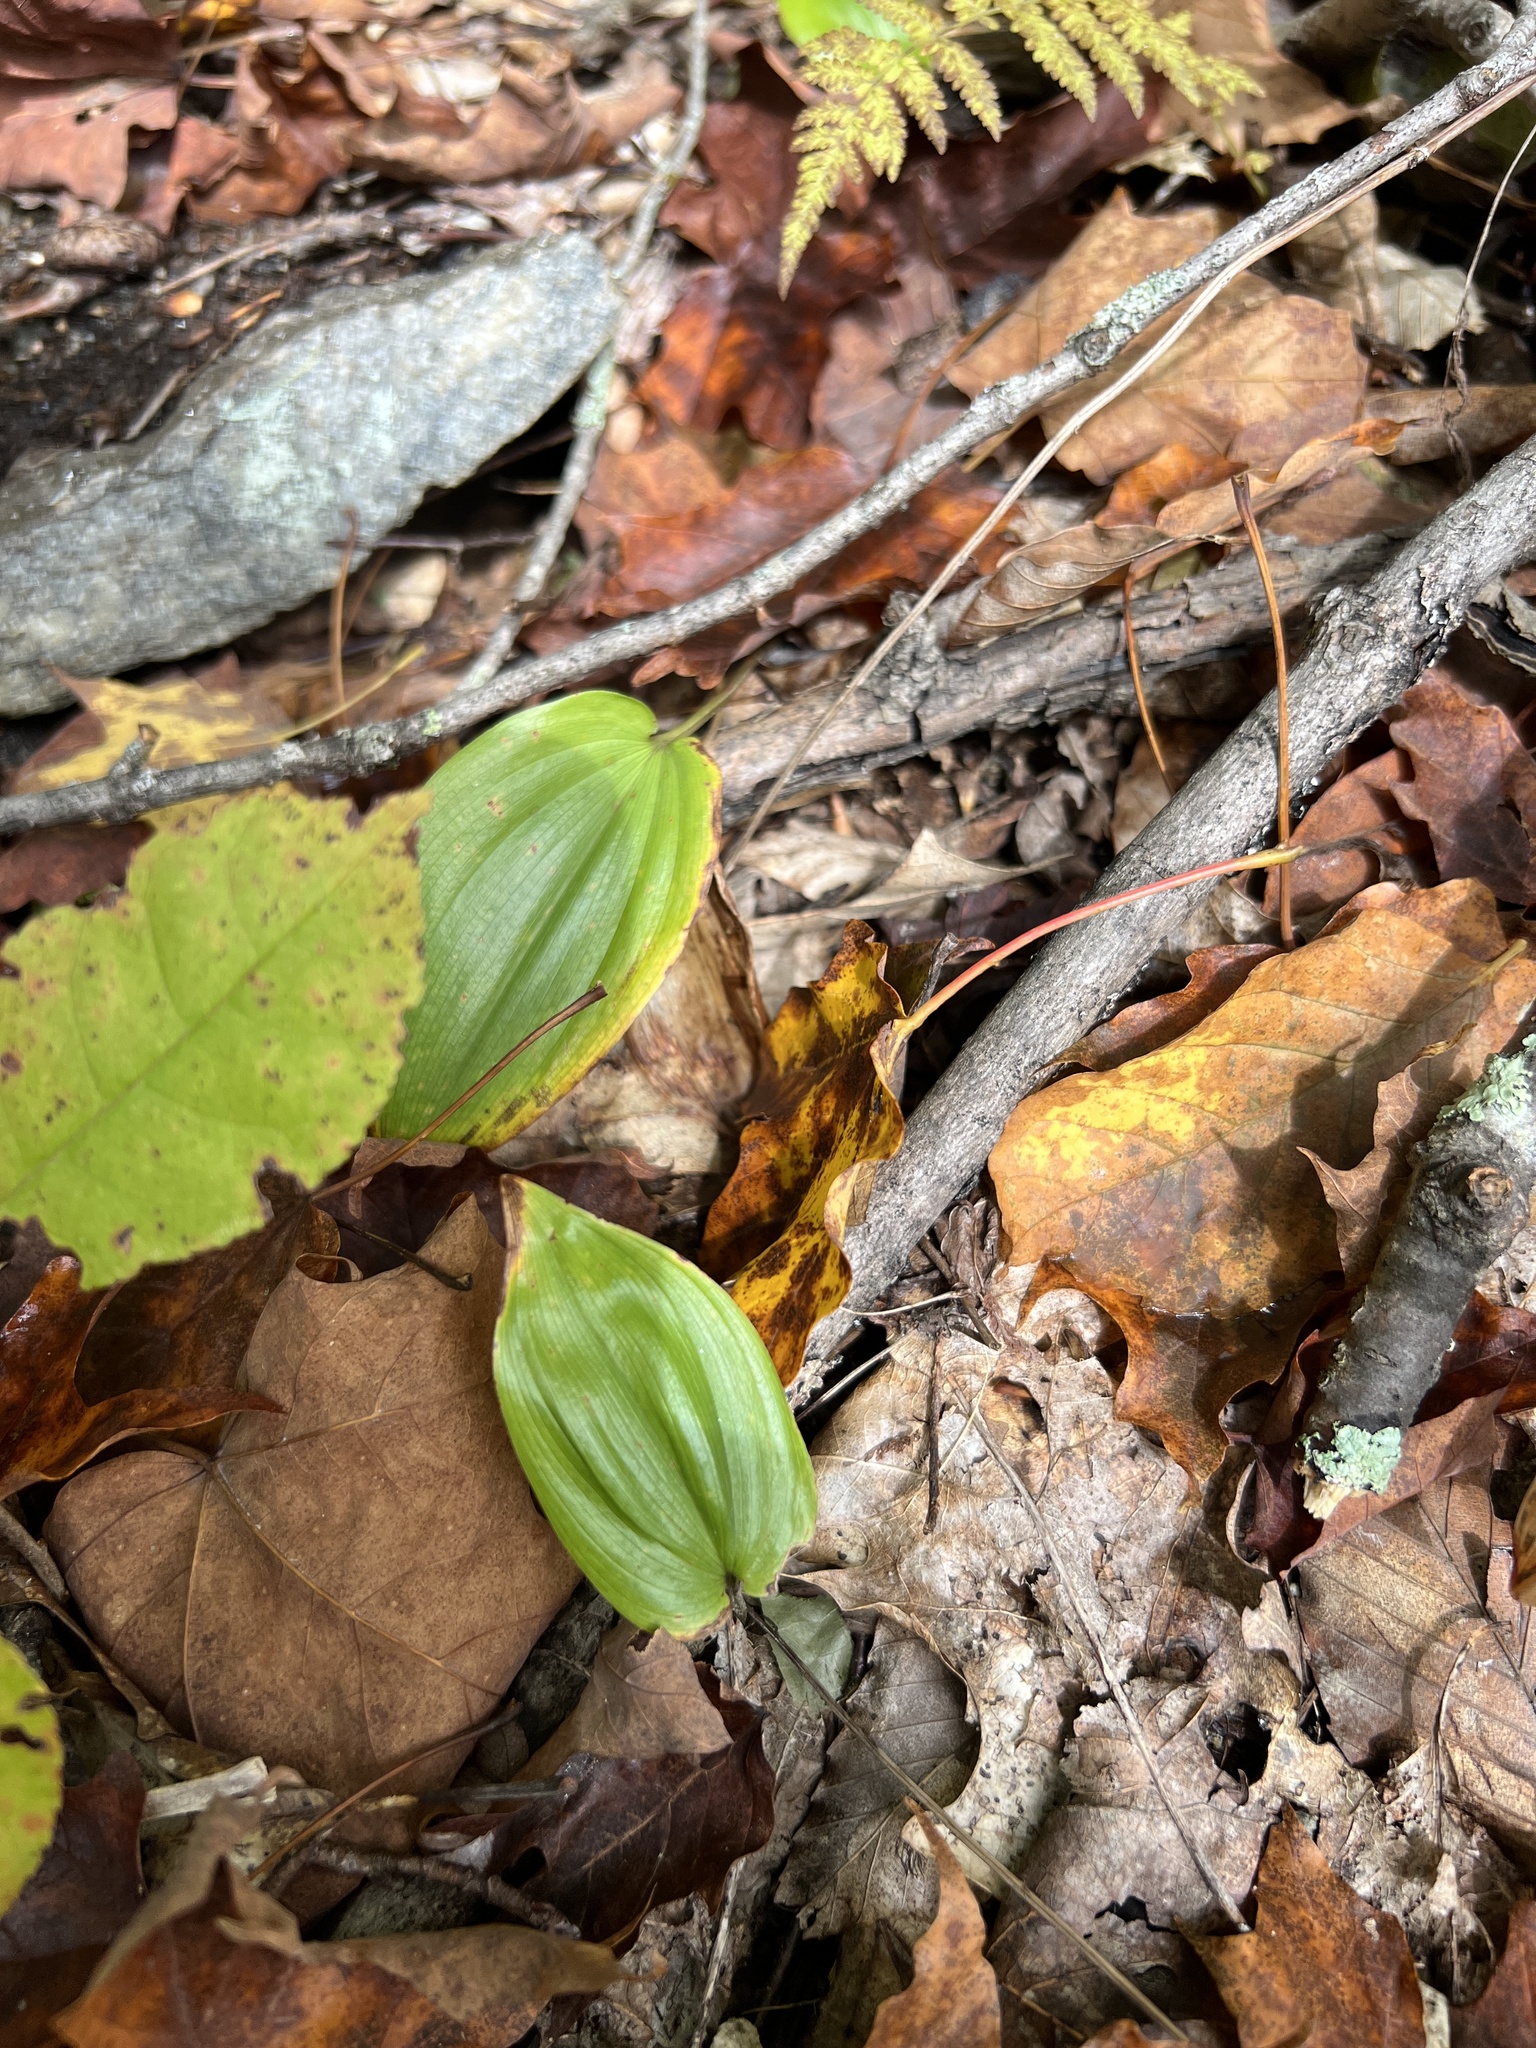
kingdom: Plantae
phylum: Tracheophyta
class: Liliopsida
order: Asparagales
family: Asparagaceae
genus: Maianthemum
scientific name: Maianthemum canadense
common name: False lily-of-the-valley
